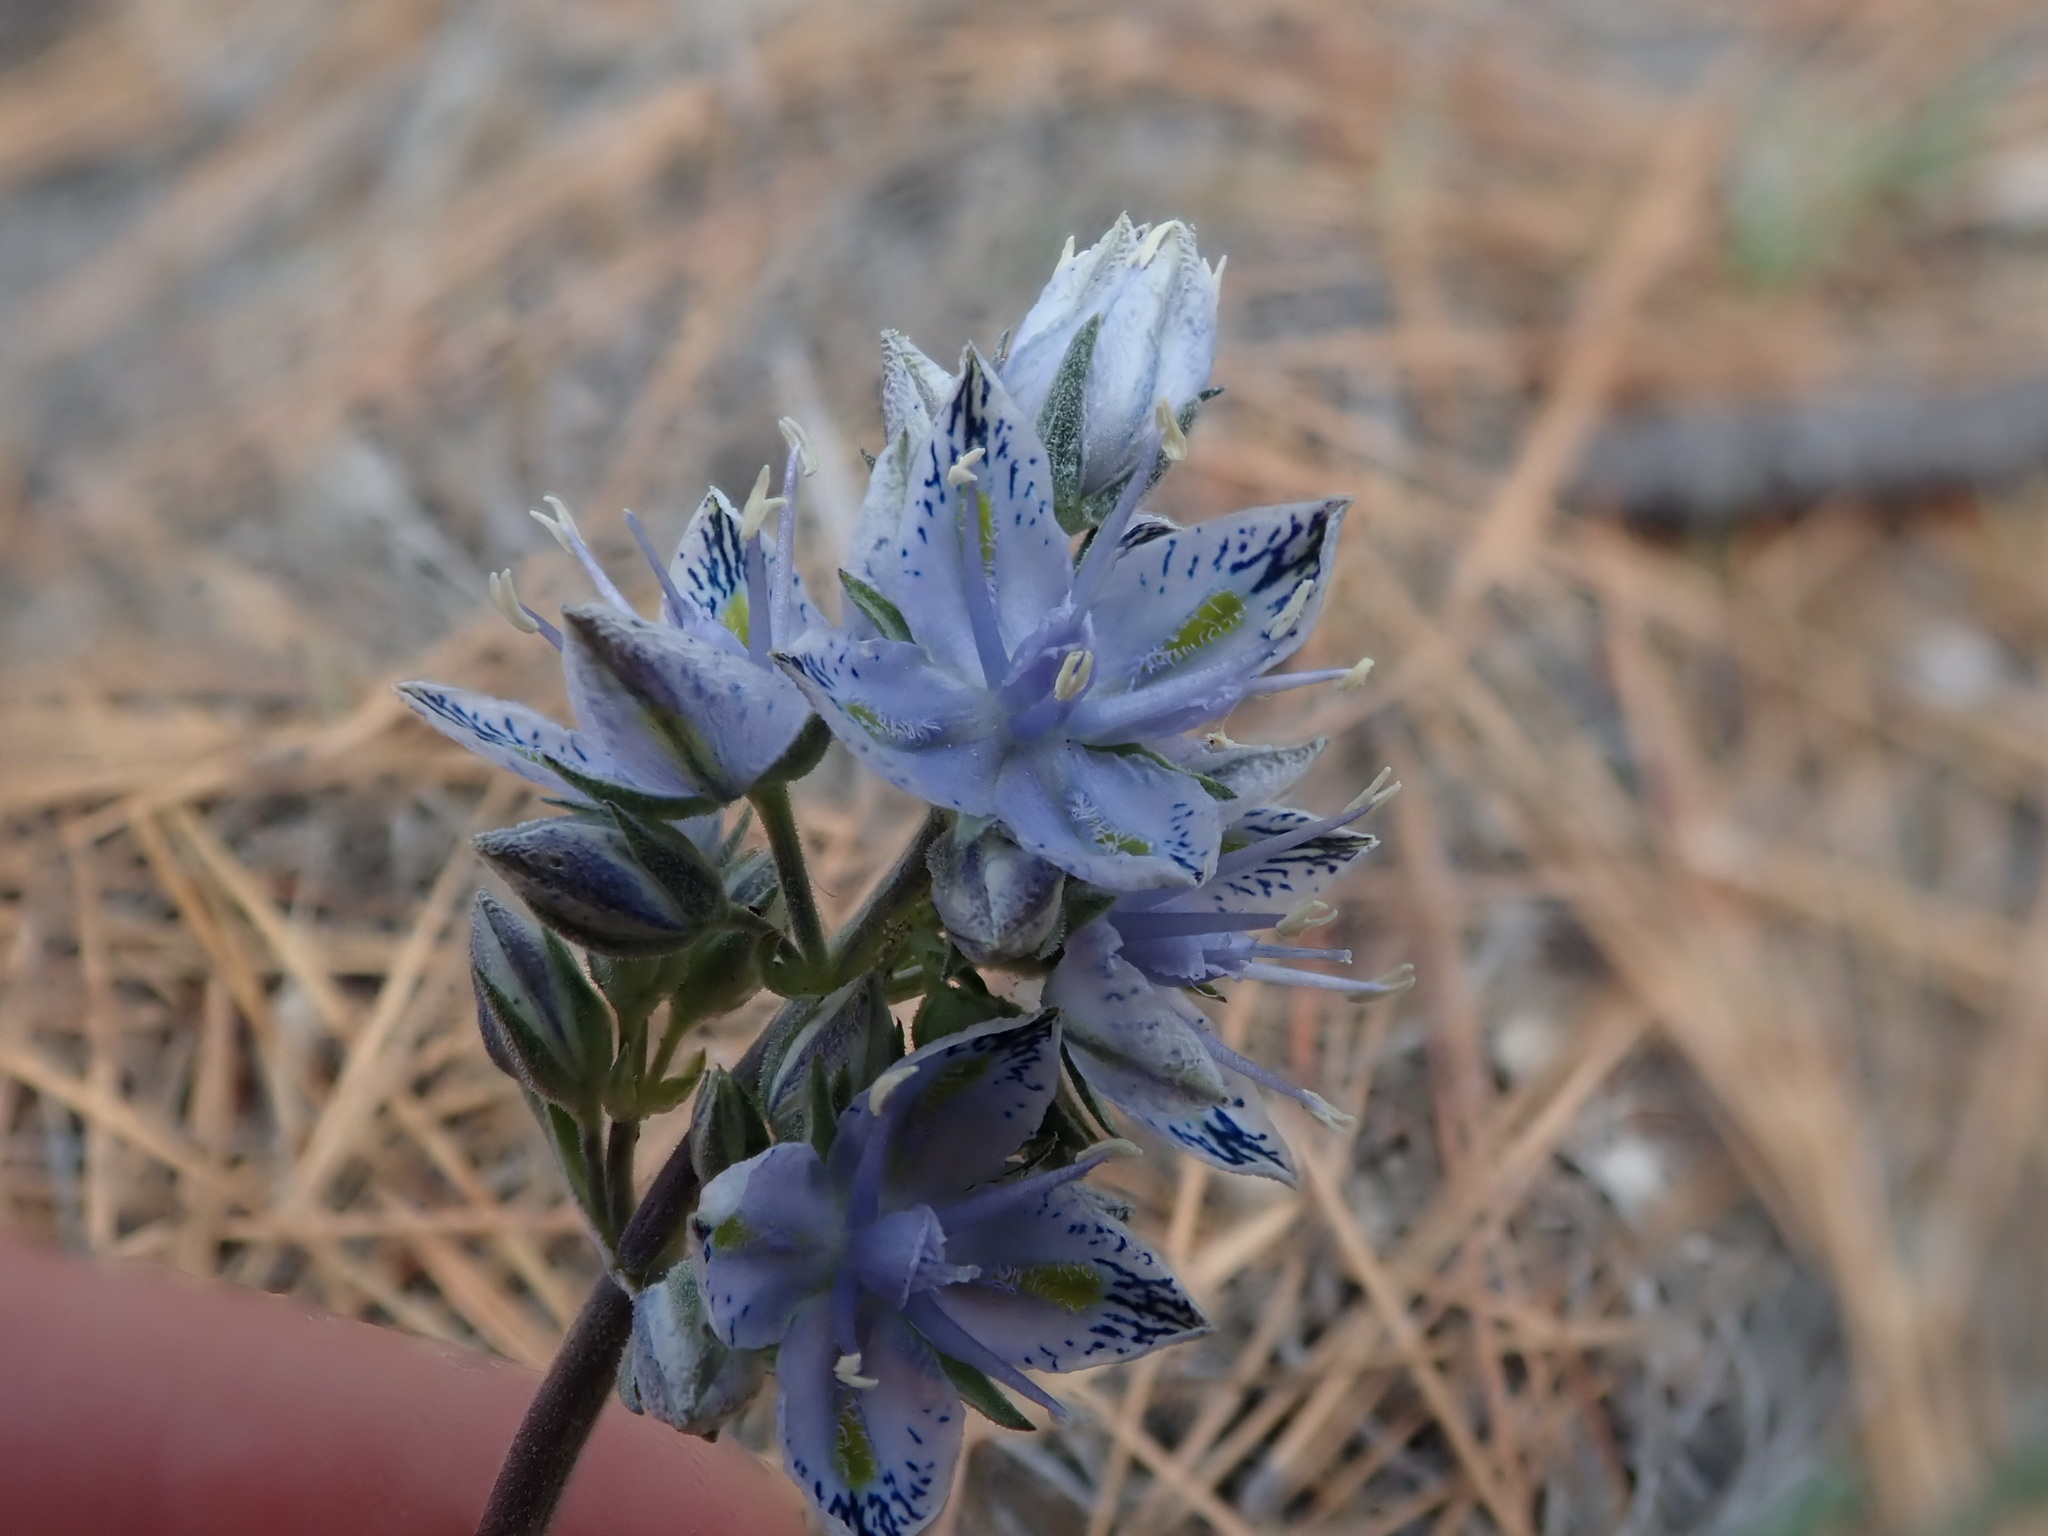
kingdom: Plantae
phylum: Tracheophyta
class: Magnoliopsida
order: Gentianales
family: Gentianaceae
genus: Frasera
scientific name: Frasera albicaulis
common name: Cusick's frasera
